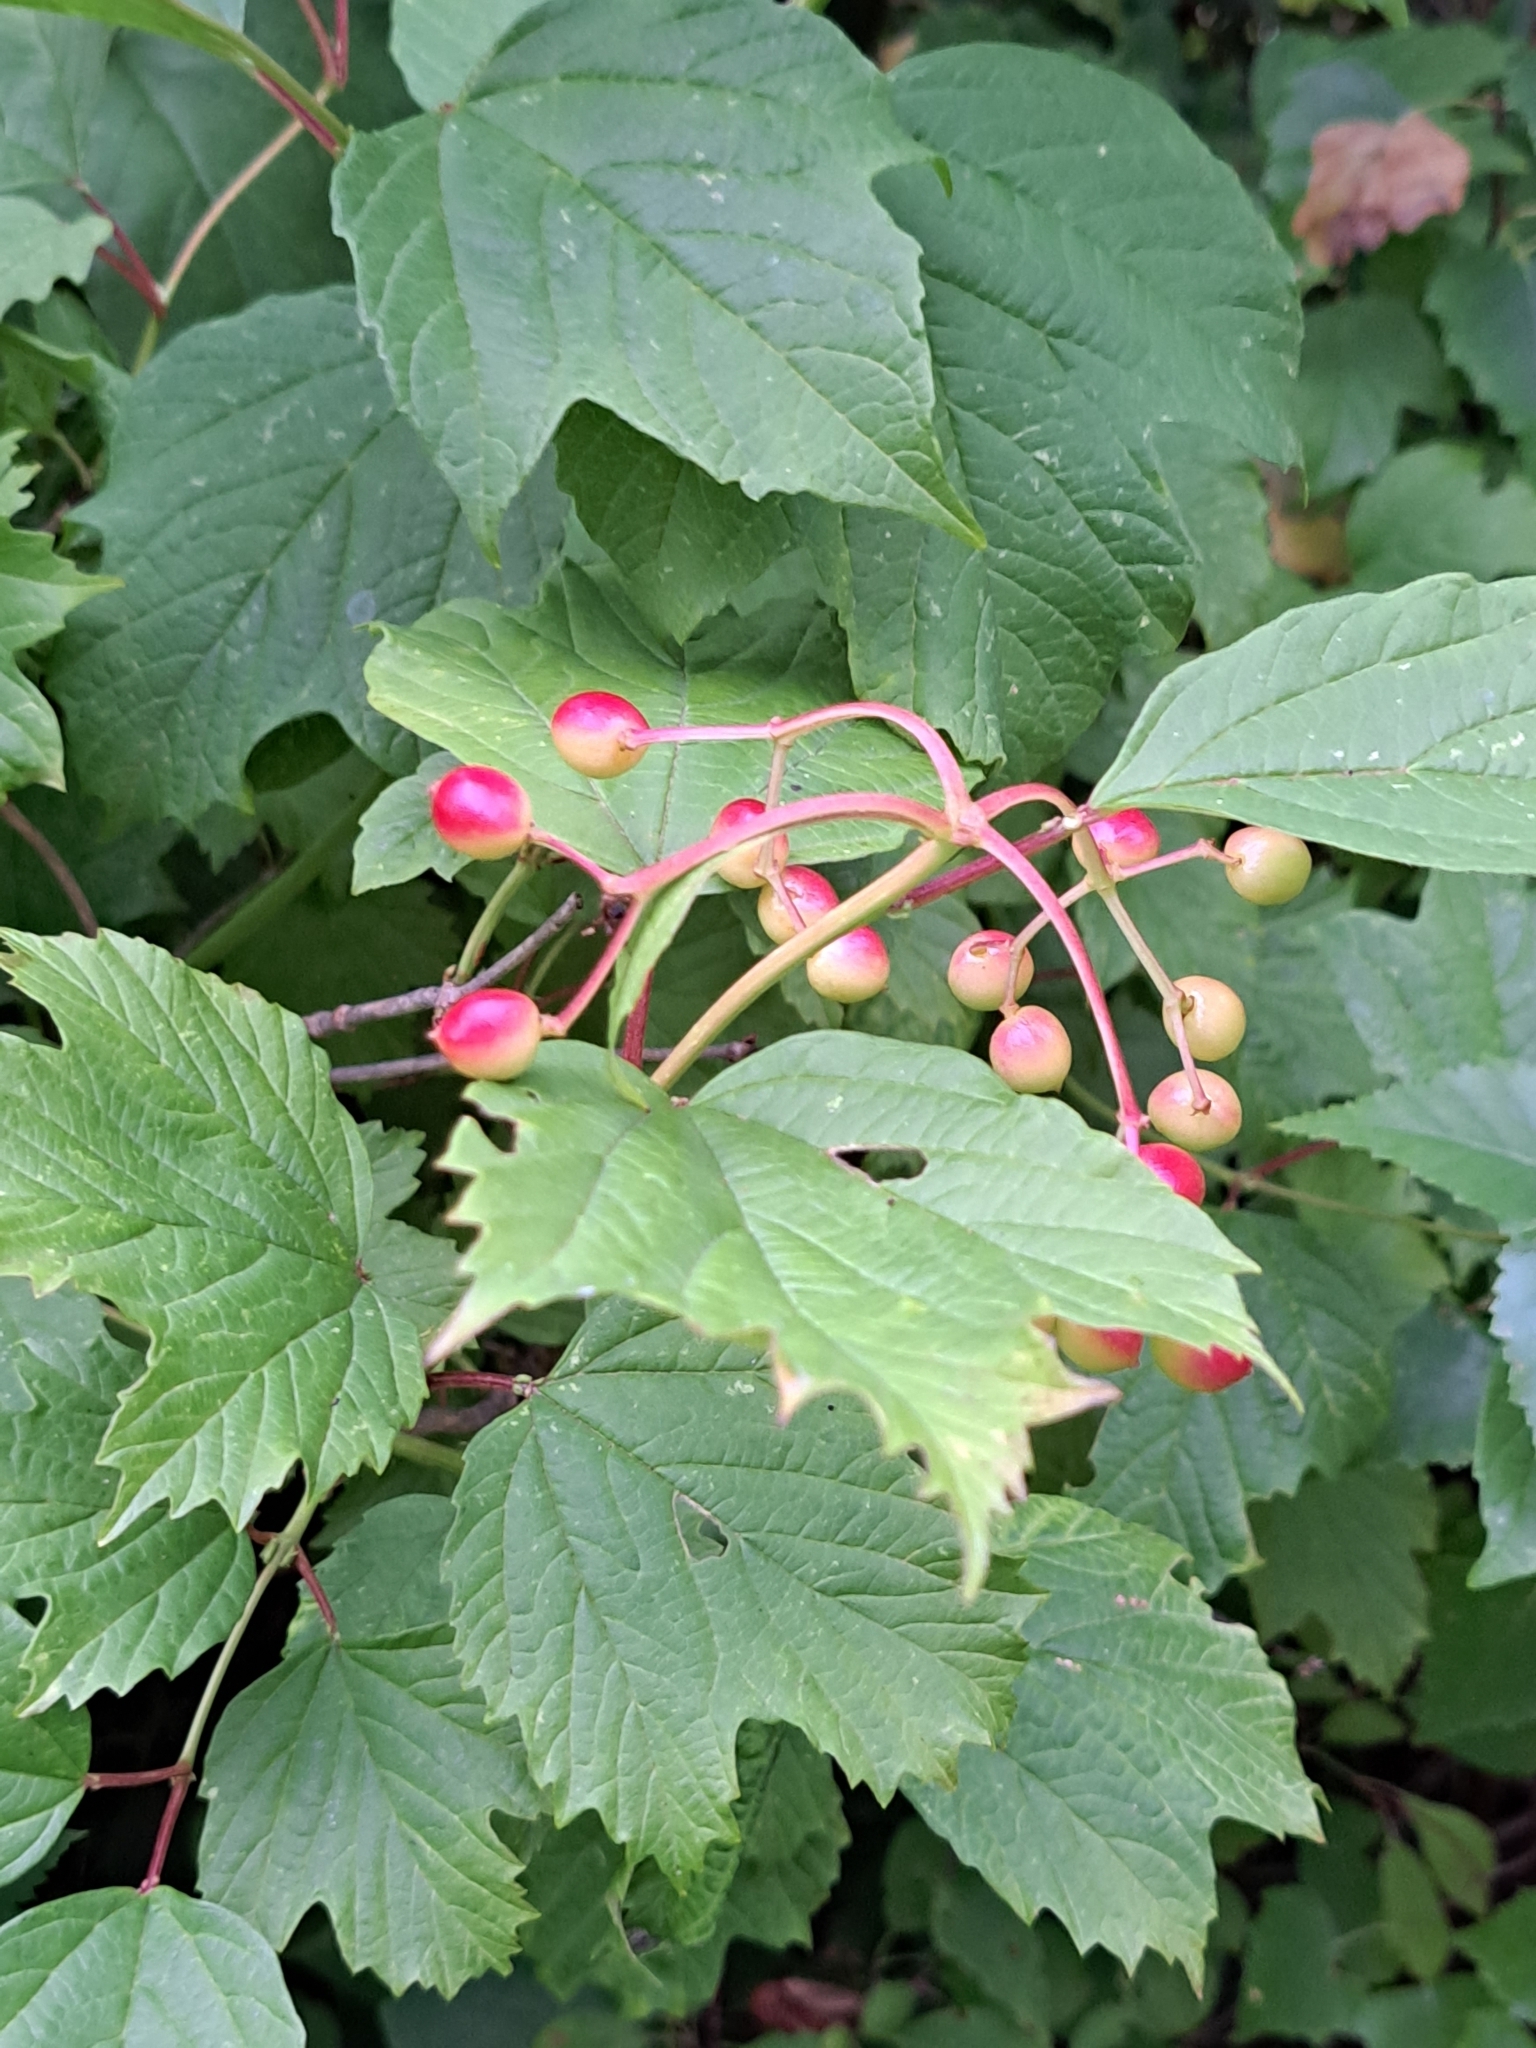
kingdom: Plantae
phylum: Tracheophyta
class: Magnoliopsida
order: Dipsacales
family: Viburnaceae
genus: Viburnum
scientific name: Viburnum opulus
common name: Guelder-rose
